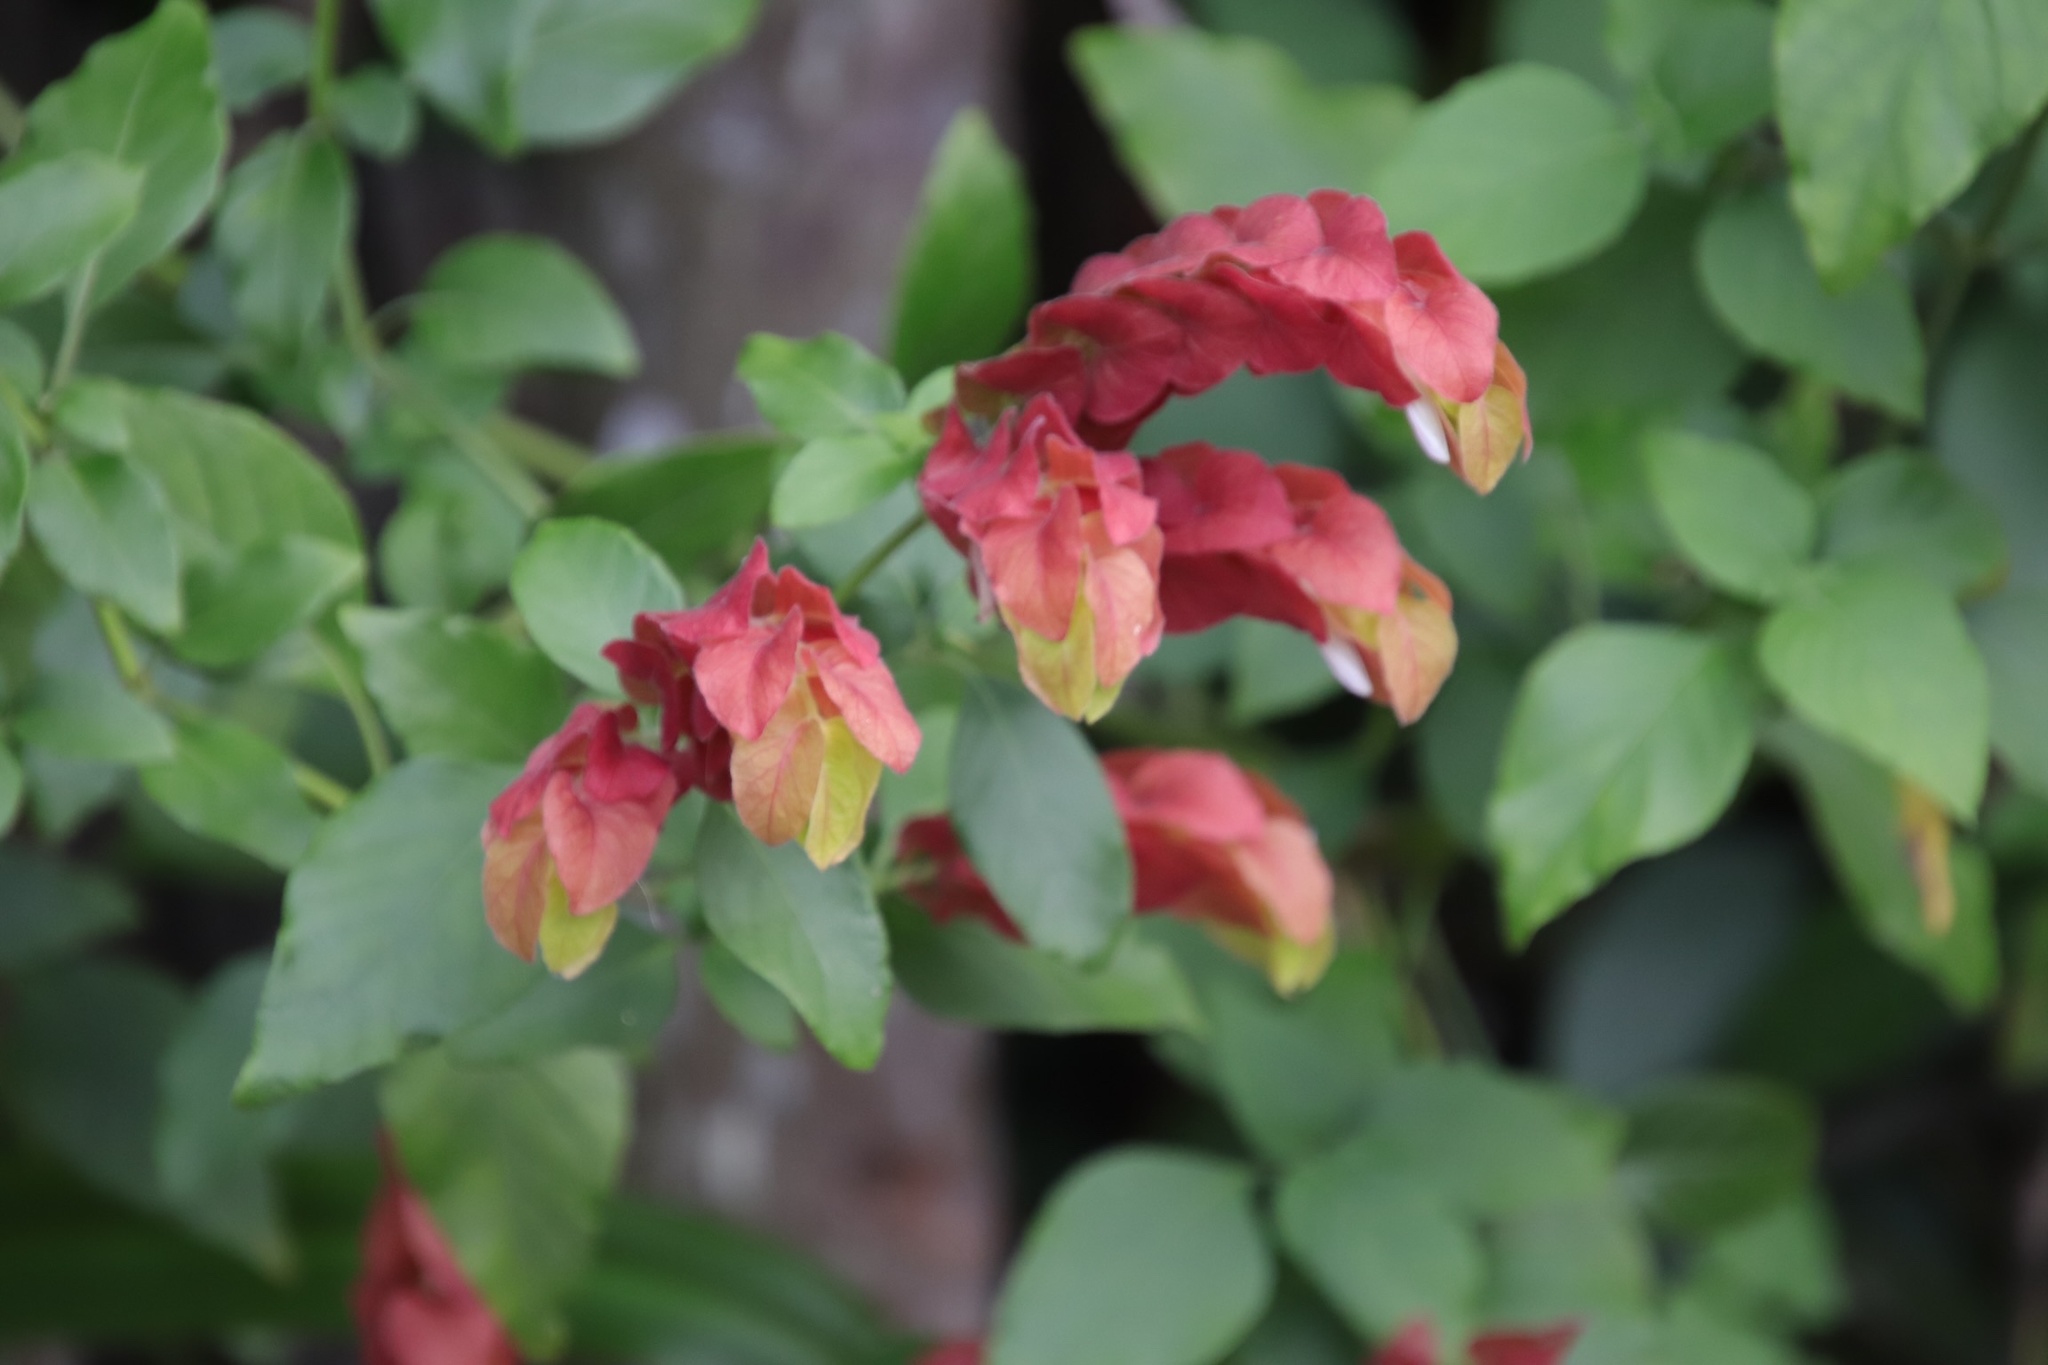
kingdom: Plantae
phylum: Tracheophyta
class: Magnoliopsida
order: Lamiales
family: Acanthaceae
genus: Justicia
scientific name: Justicia brandegeeana
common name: Shrimpplant
